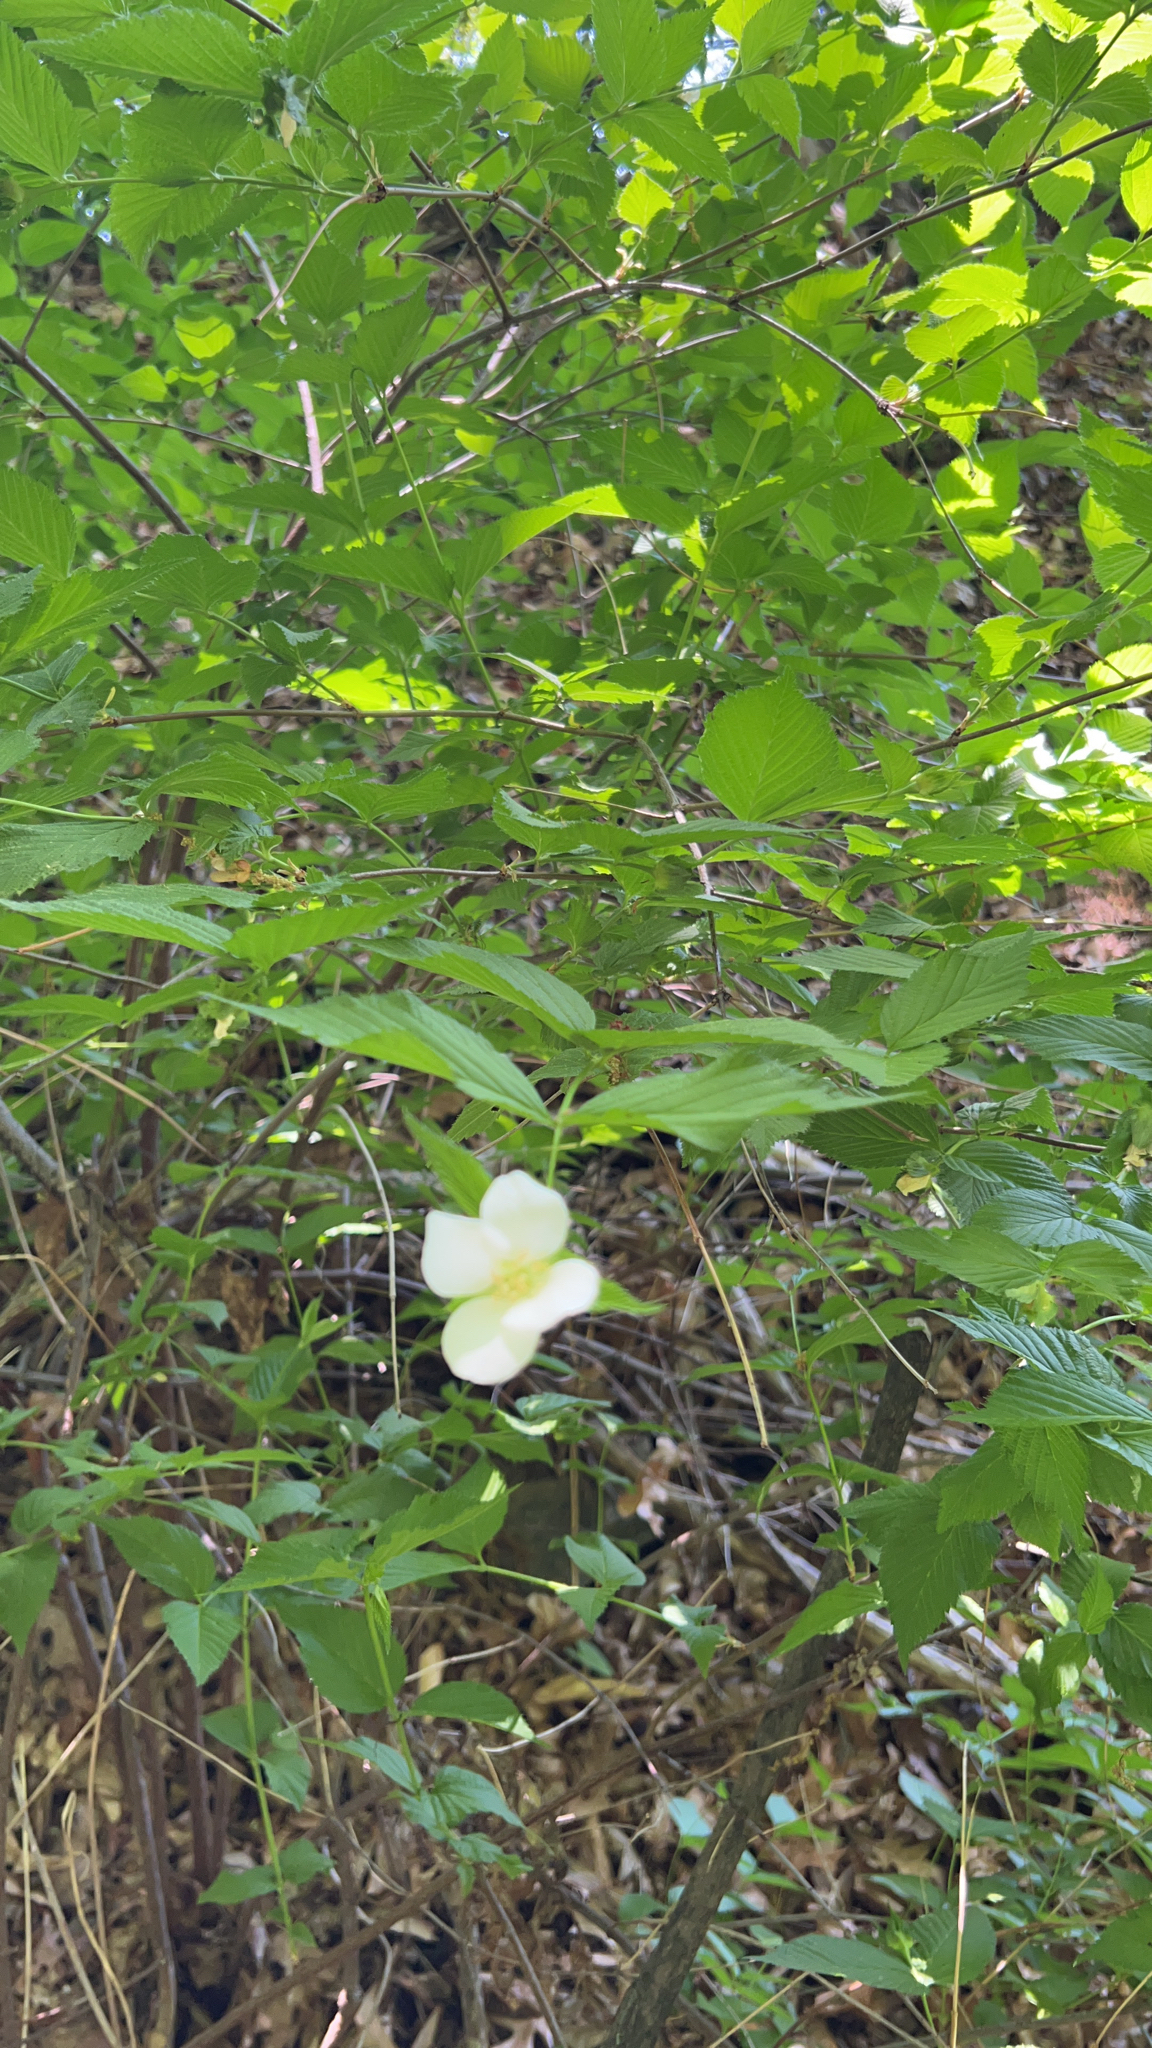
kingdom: Plantae
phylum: Tracheophyta
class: Magnoliopsida
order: Rosales
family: Rosaceae
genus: Rhodotypos
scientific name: Rhodotypos scandens
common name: Jetbead
